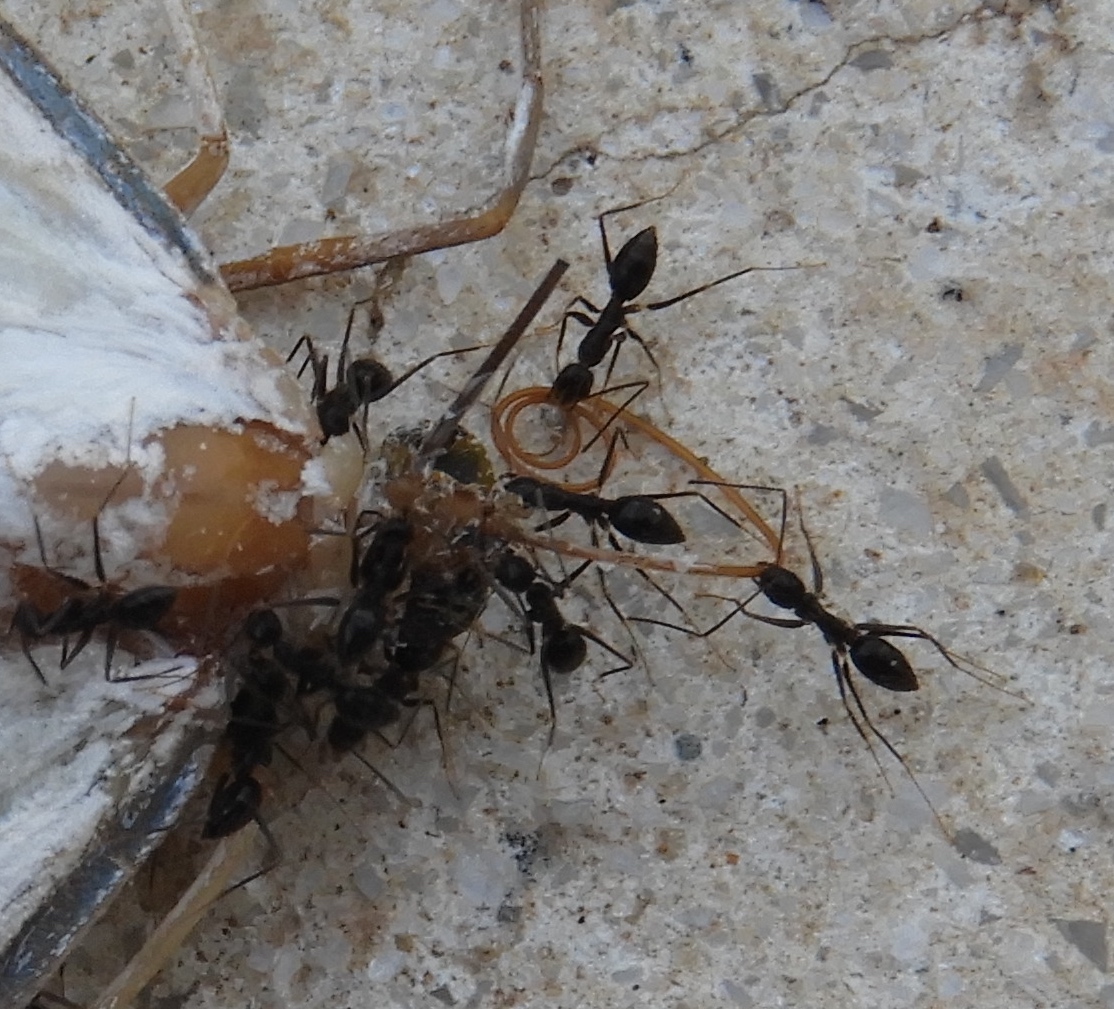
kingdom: Animalia
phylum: Arthropoda
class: Insecta
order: Hymenoptera
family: Formicidae
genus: Paratrechina
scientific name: Paratrechina longicornis
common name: Longhorned crazy ant
